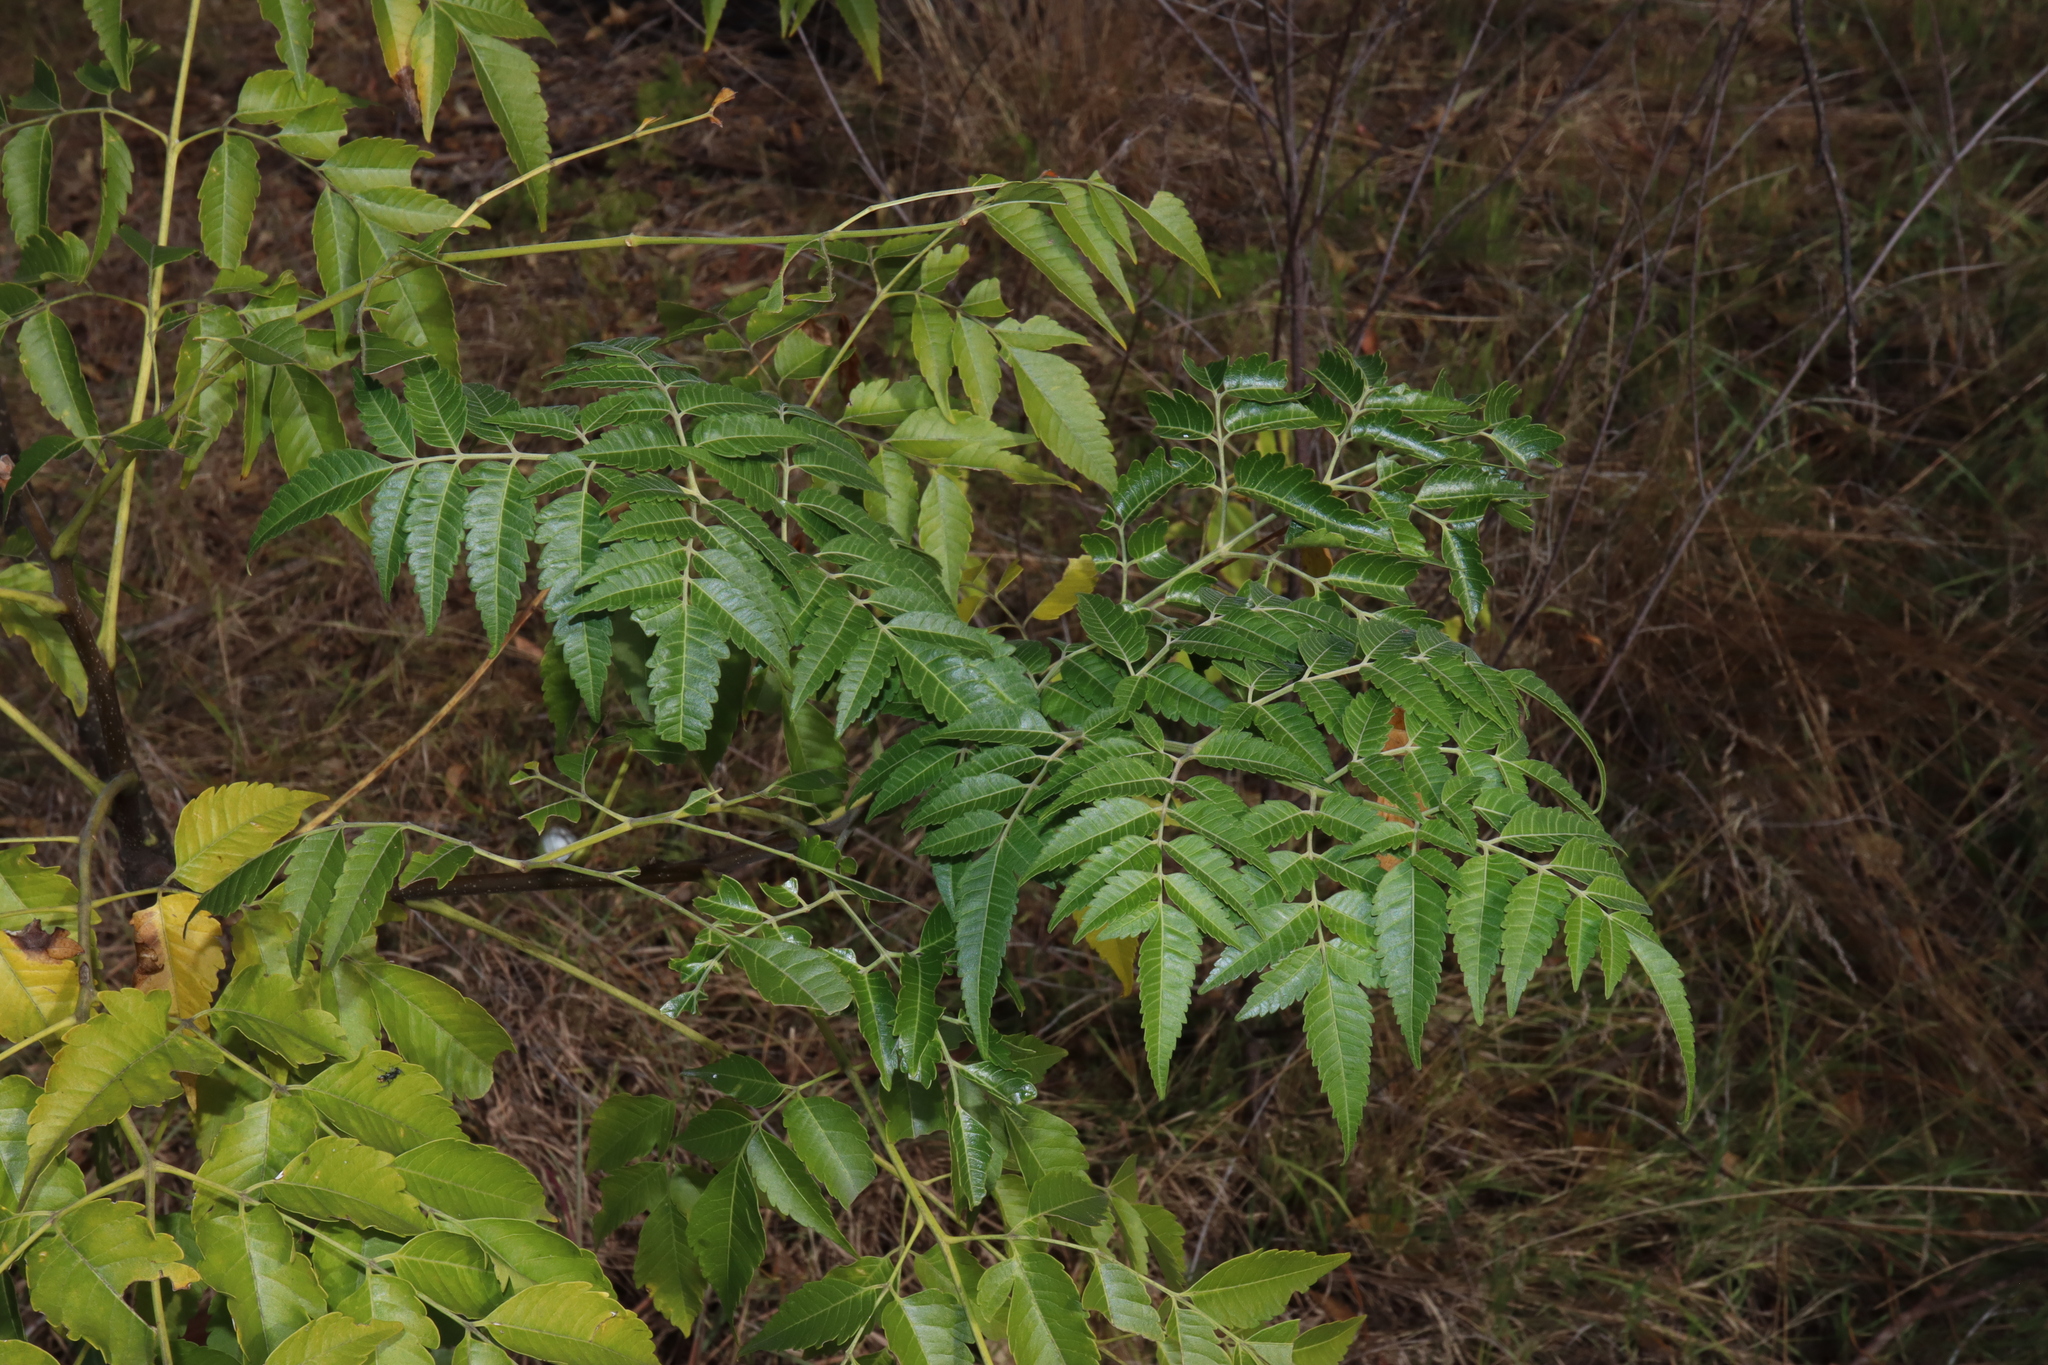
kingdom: Plantae
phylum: Tracheophyta
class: Magnoliopsida
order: Sapindales
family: Meliaceae
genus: Melia
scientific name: Melia azedarach
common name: Chinaberrytree
